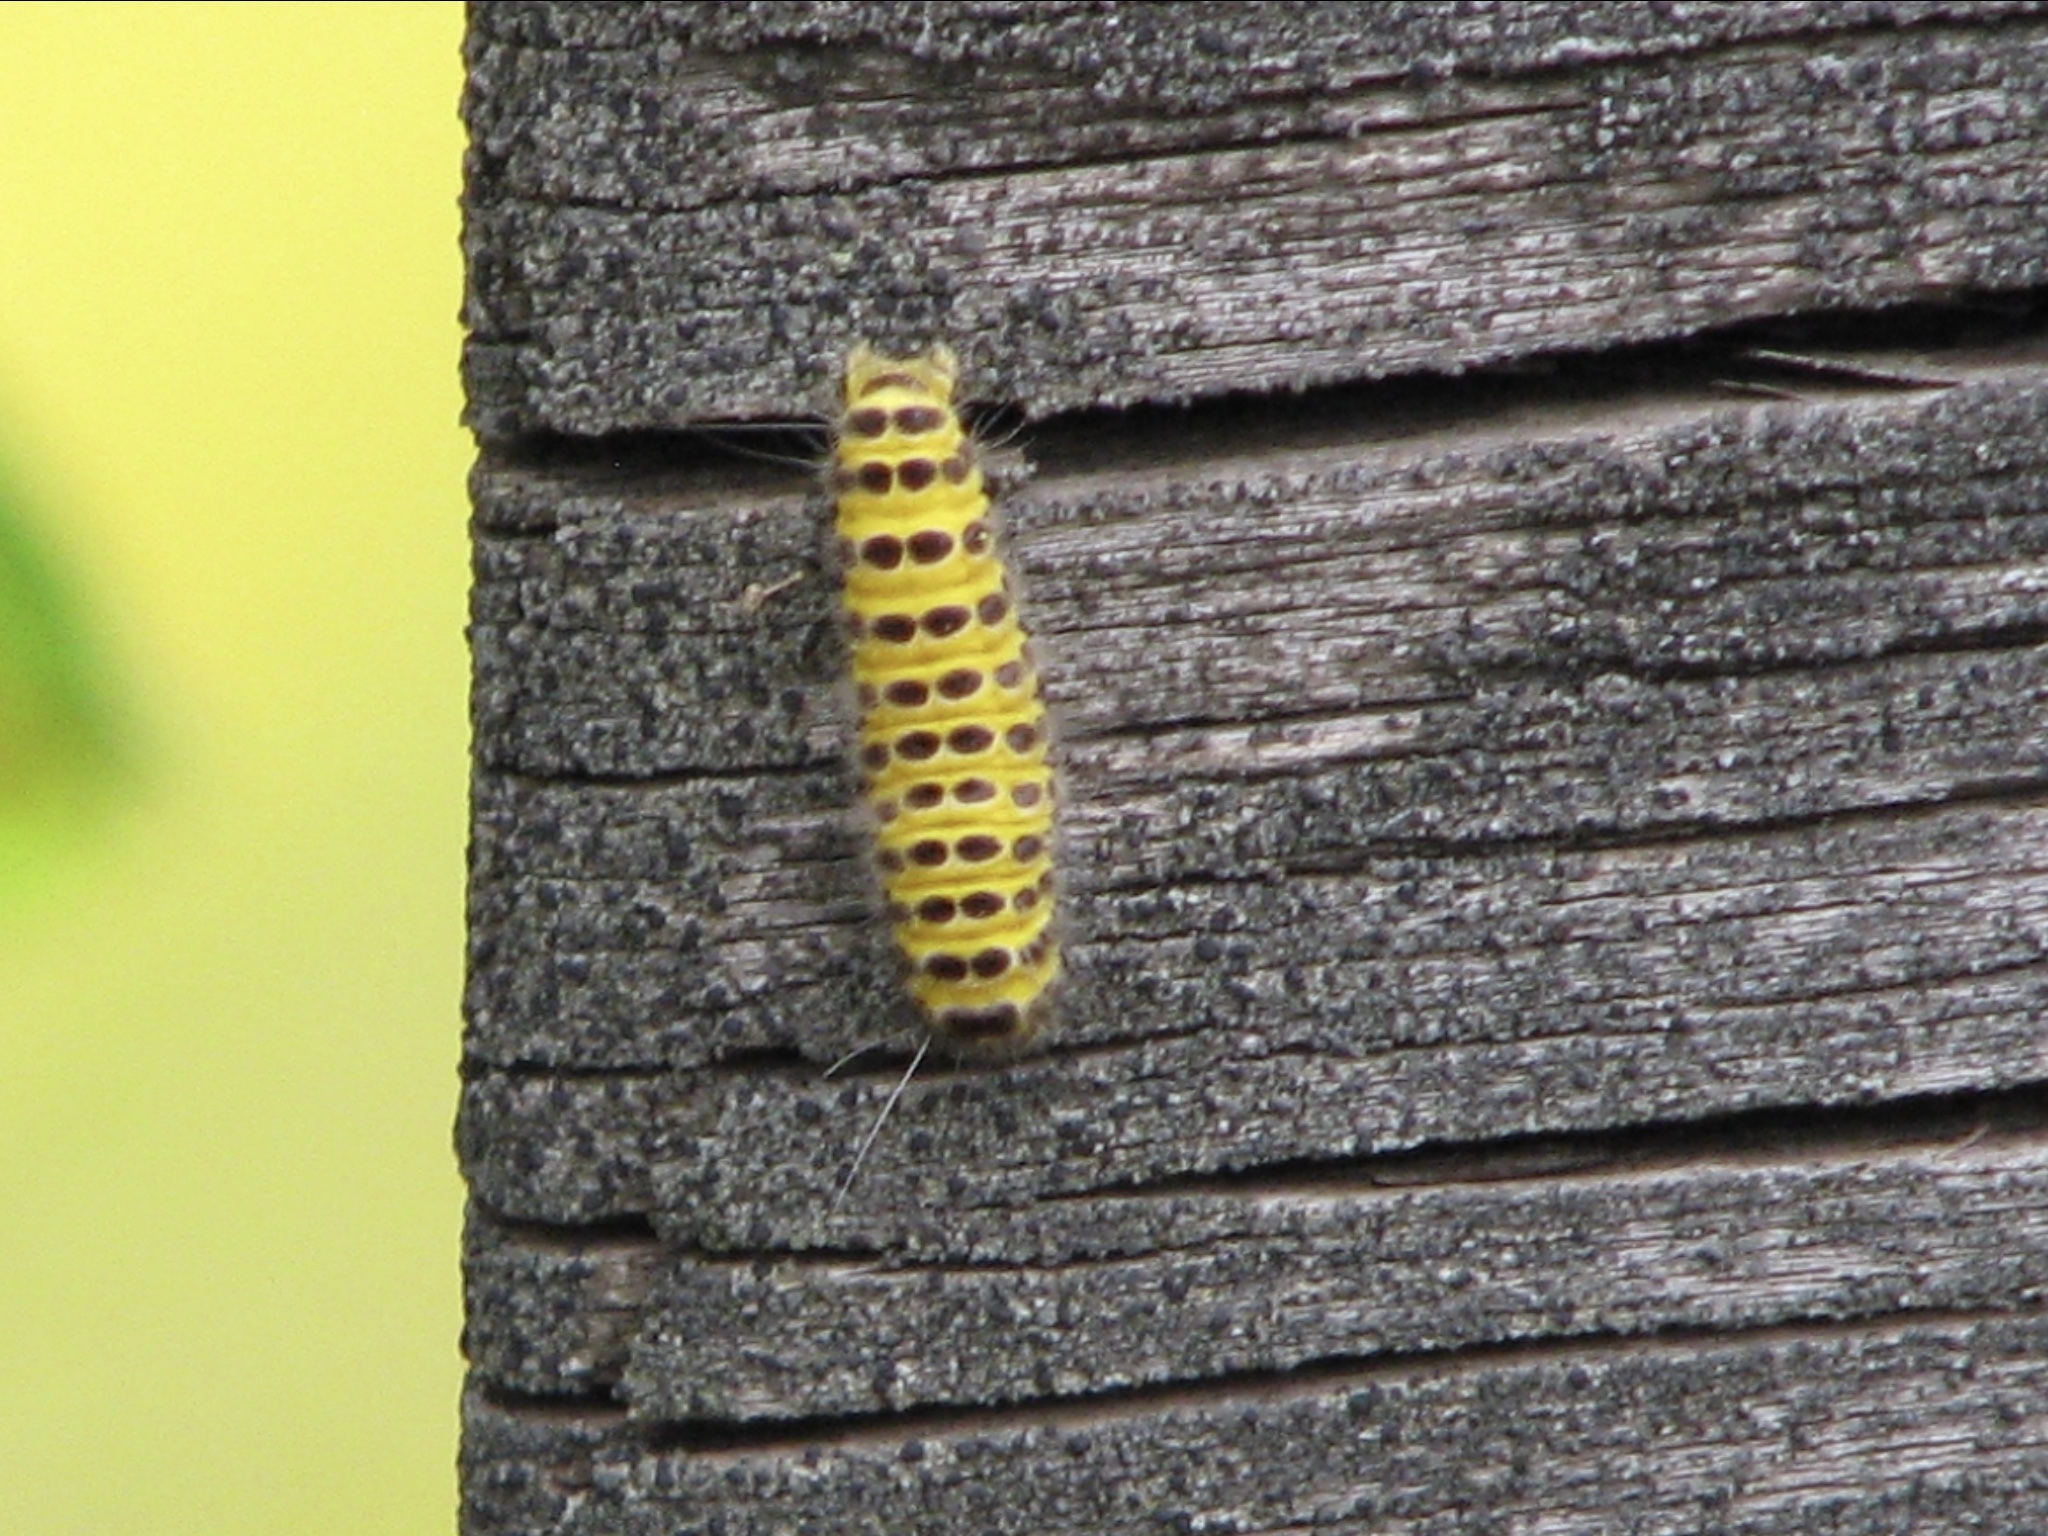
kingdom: Animalia
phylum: Arthropoda
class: Insecta
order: Lepidoptera
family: Zygaenidae
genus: Harrisina
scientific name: Harrisina americana
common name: Grapeleaf skeletonizer moth
